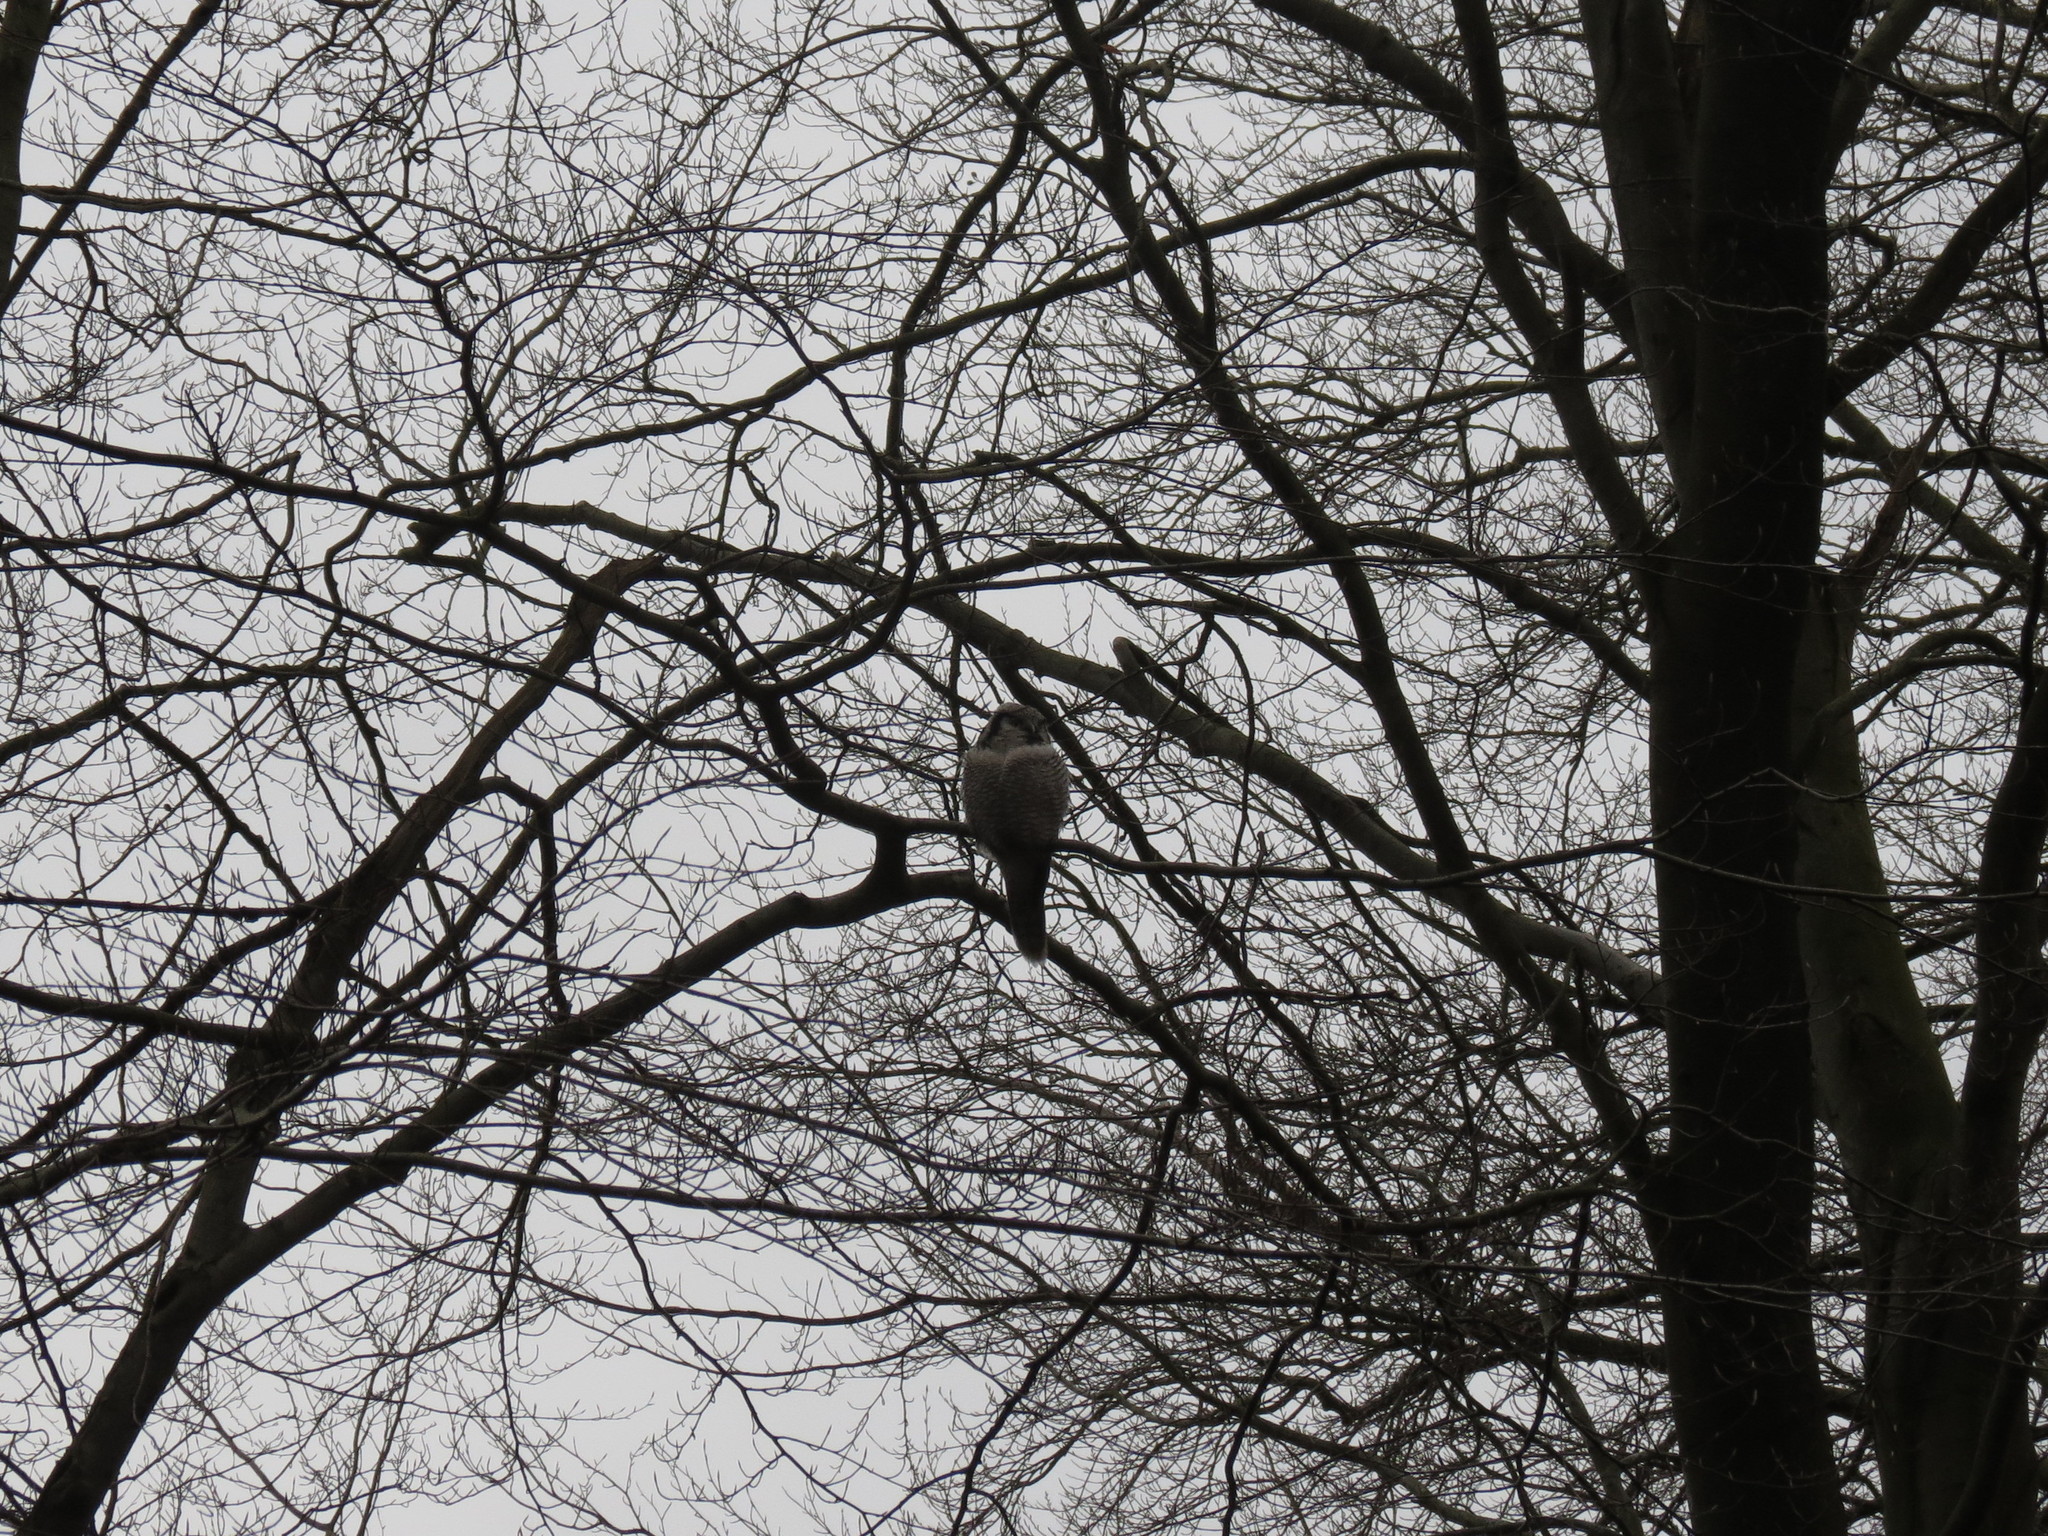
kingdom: Animalia
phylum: Chordata
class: Aves
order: Strigiformes
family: Strigidae
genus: Surnia
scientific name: Surnia ulula
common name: Northern hawk-owl
